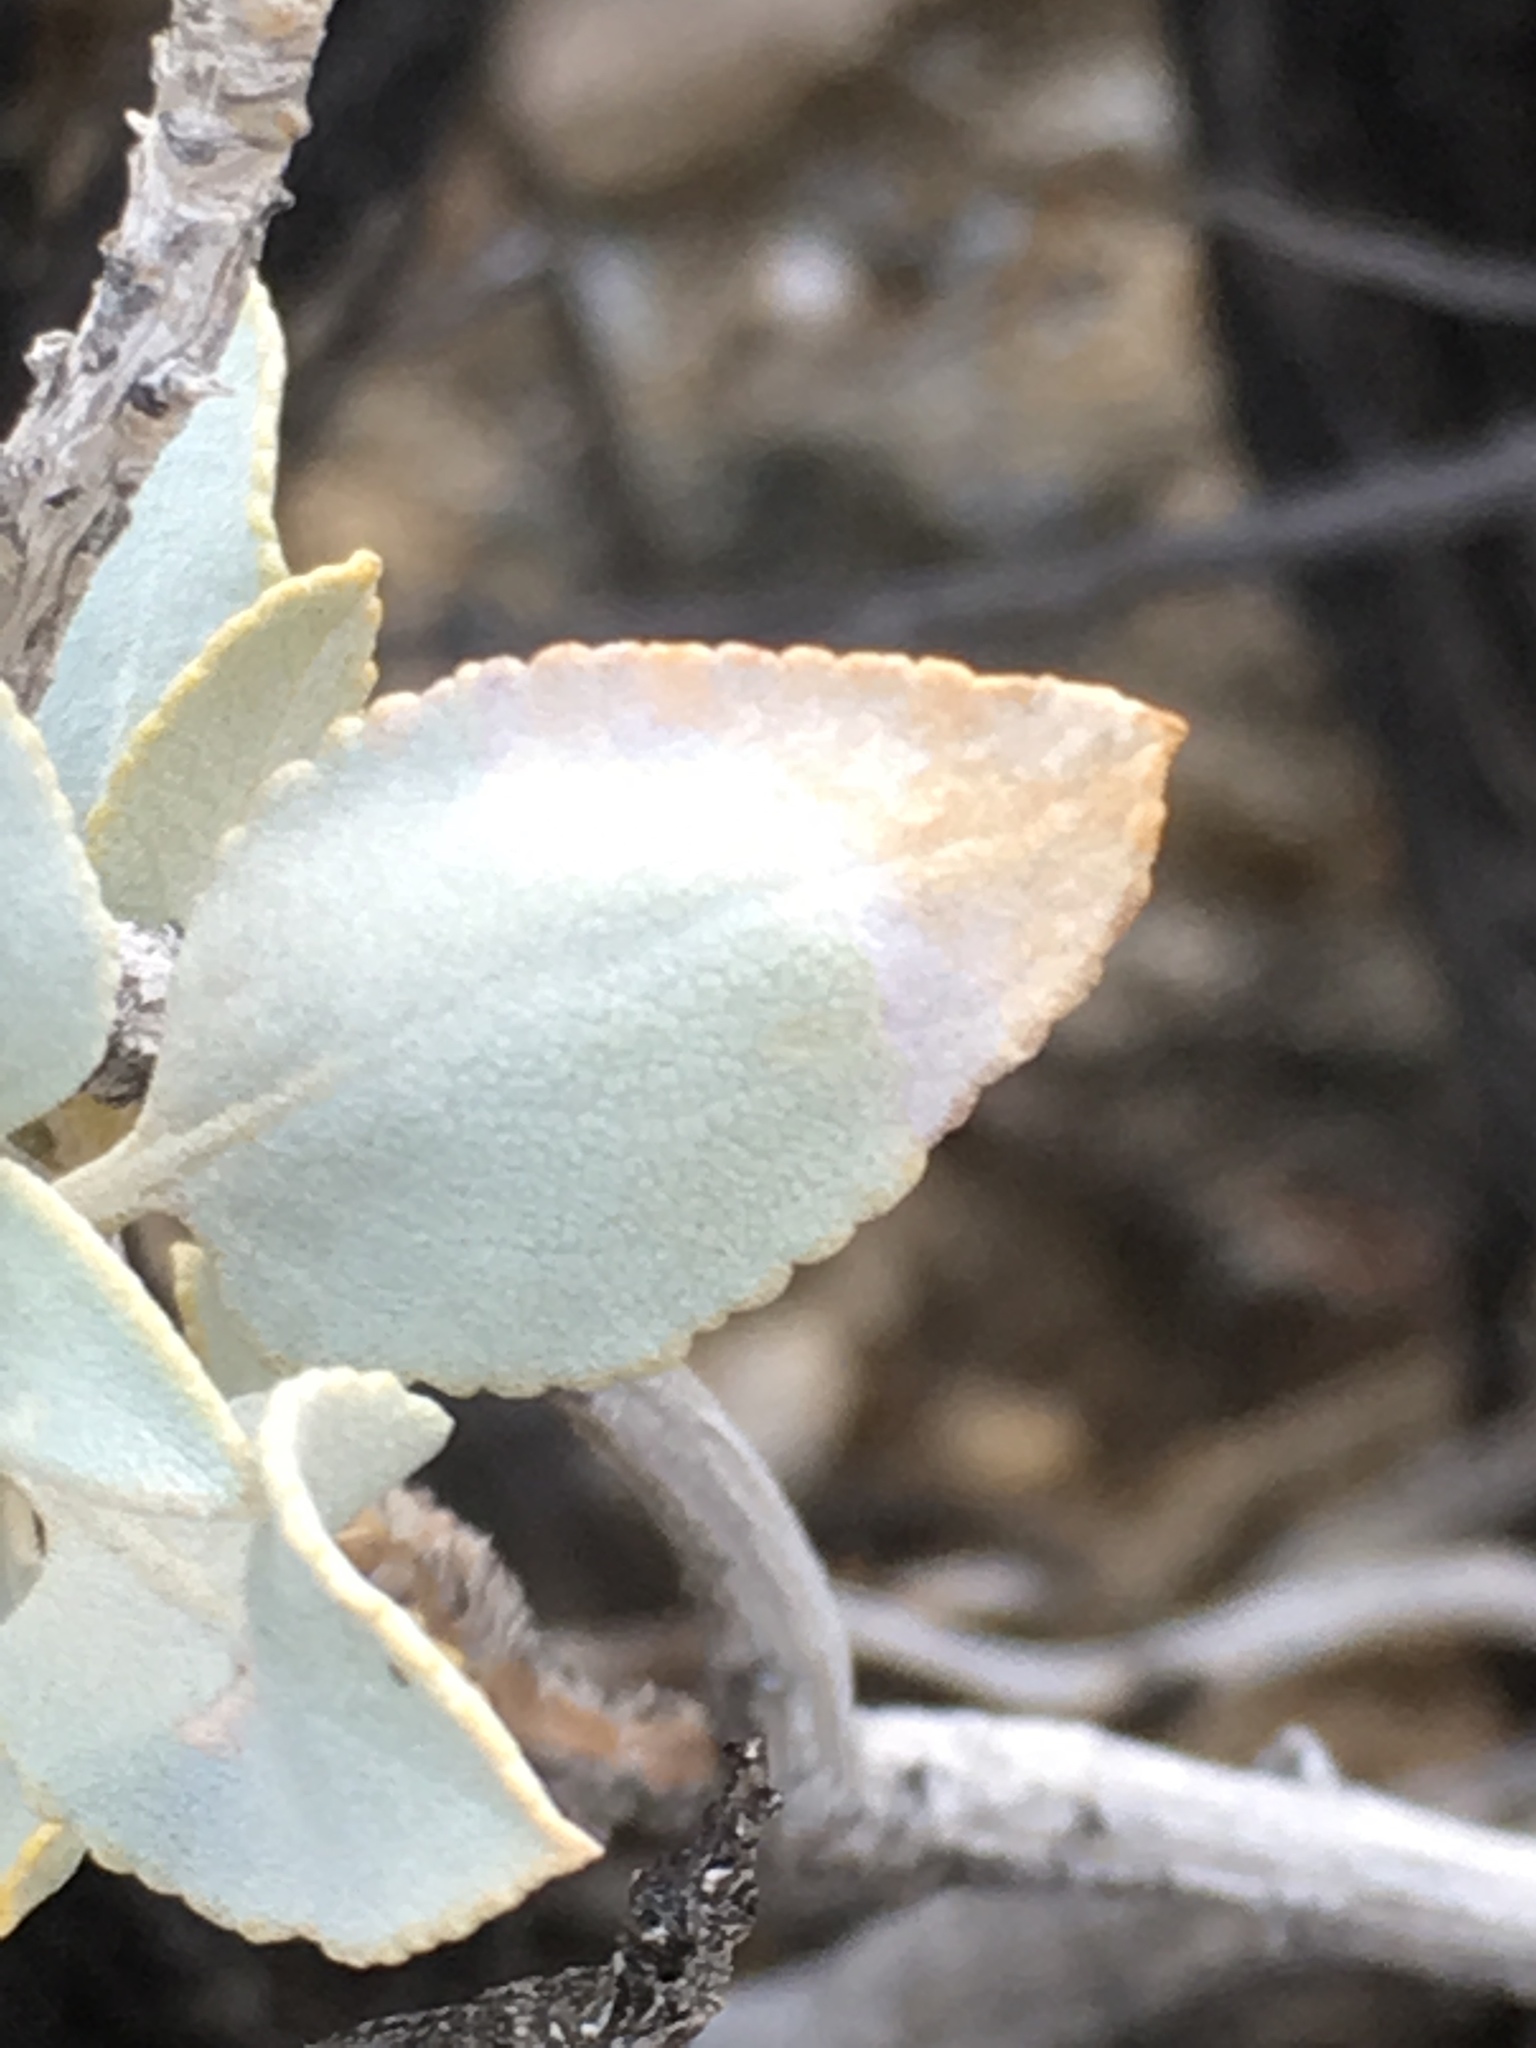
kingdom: Plantae
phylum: Tracheophyta
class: Magnoliopsida
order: Lamiales
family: Lamiaceae
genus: Salvia
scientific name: Salvia vaseyi
